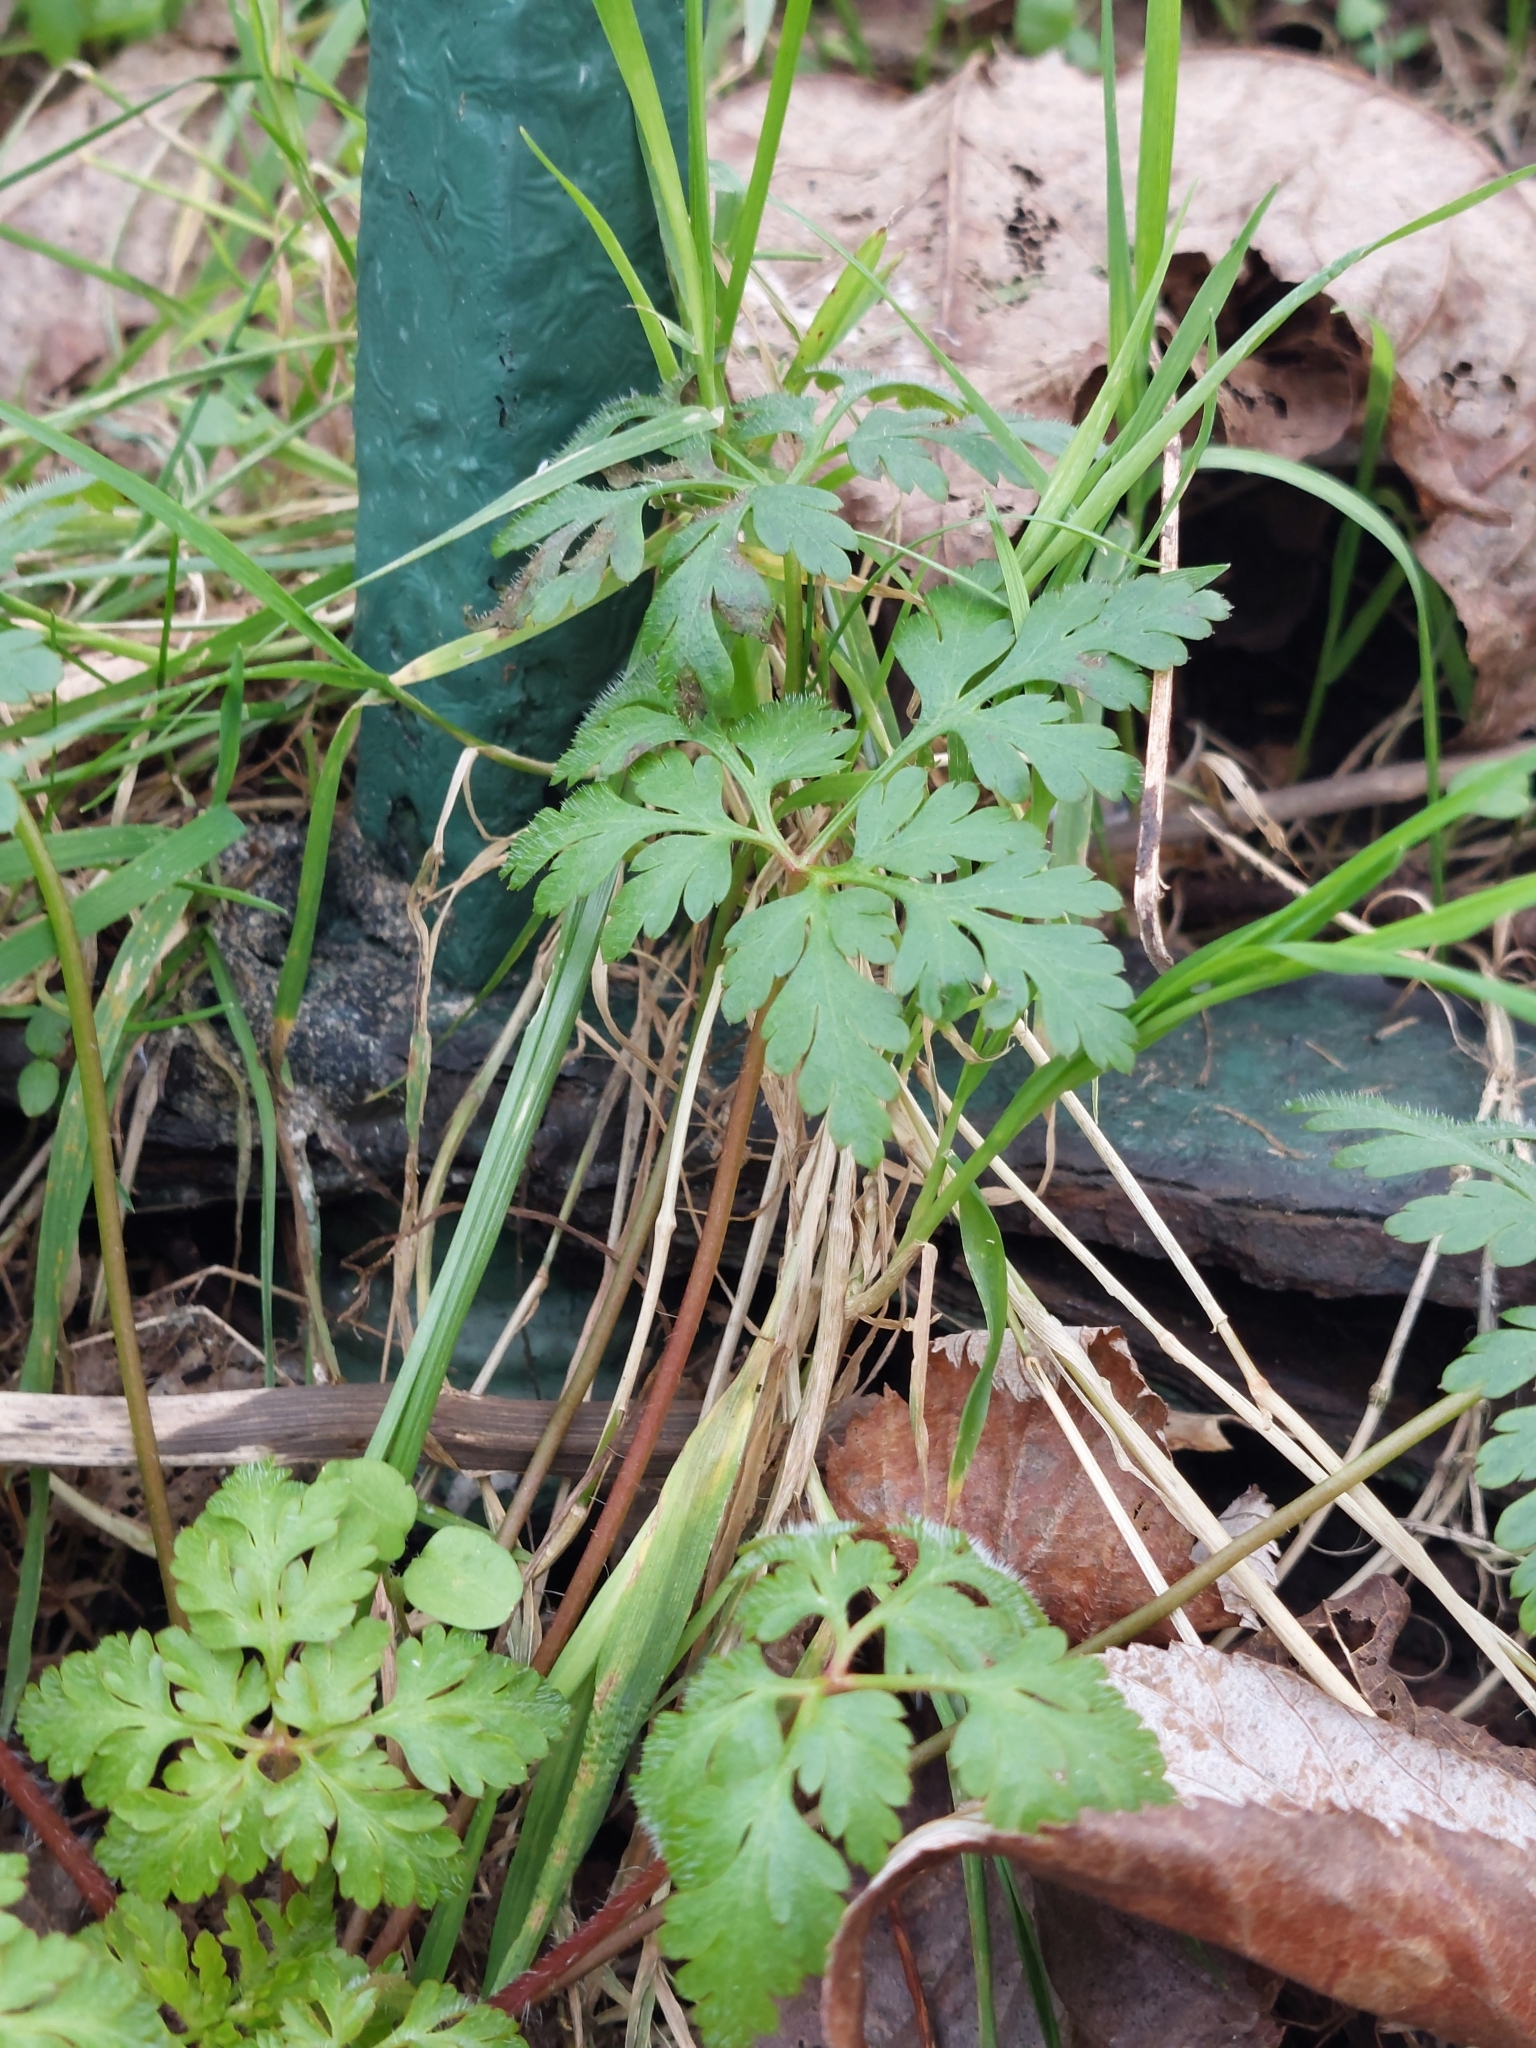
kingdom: Plantae
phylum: Tracheophyta
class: Magnoliopsida
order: Geraniales
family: Geraniaceae
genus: Geranium
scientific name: Geranium robertianum
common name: Herb-robert
